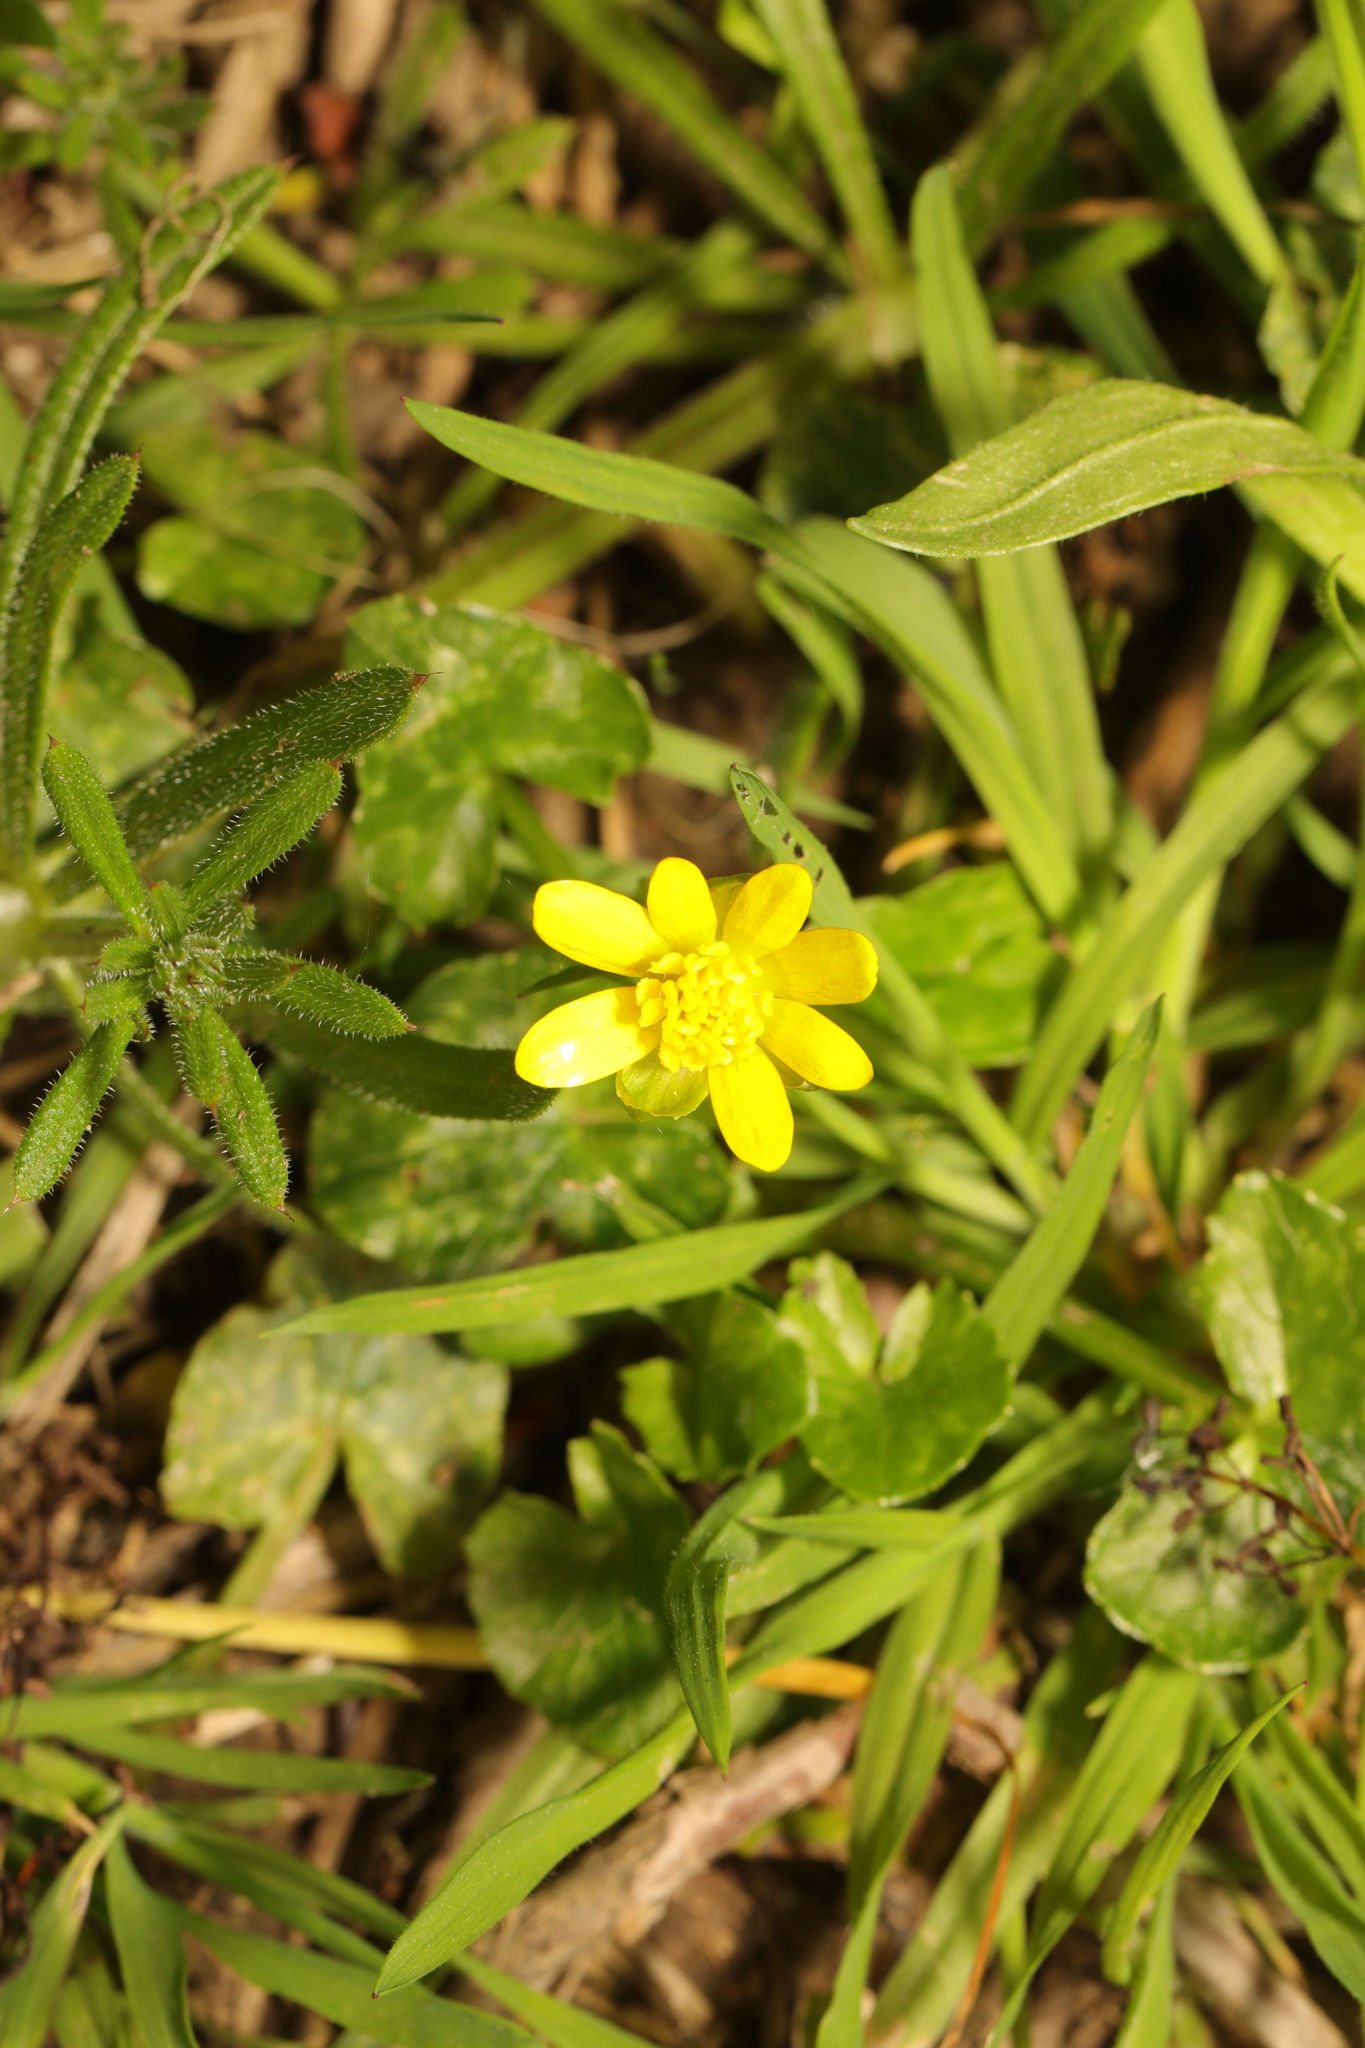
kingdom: Plantae
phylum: Tracheophyta
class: Magnoliopsida
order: Ranunculales
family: Ranunculaceae
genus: Ficaria
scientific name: Ficaria verna
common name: Lesser celandine
